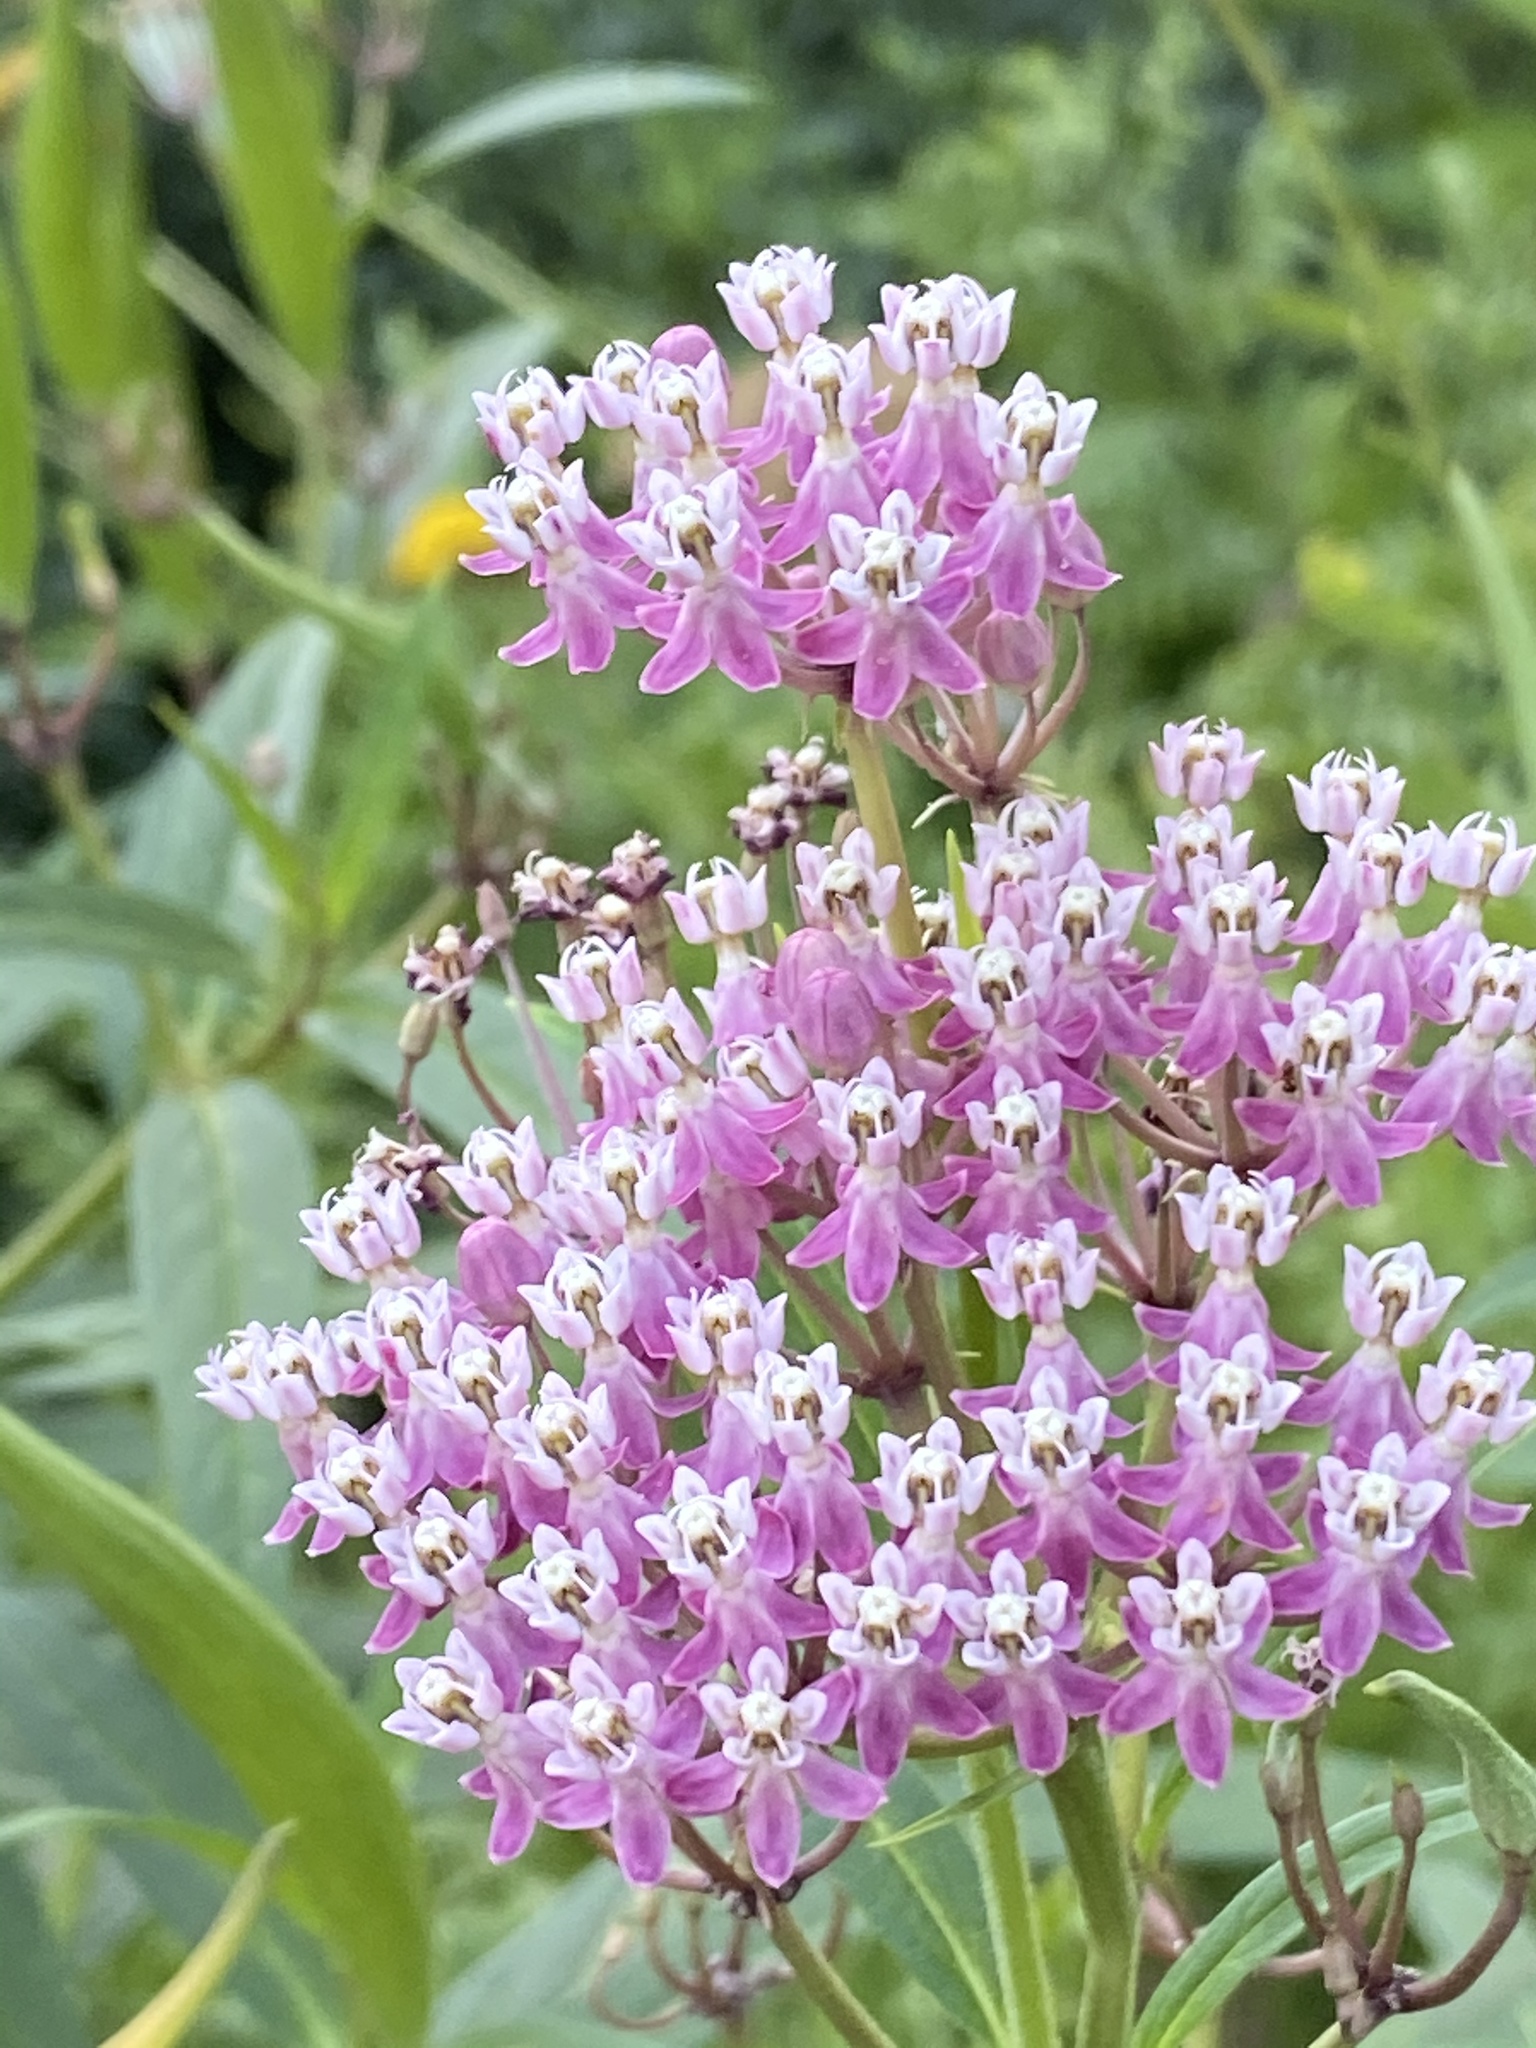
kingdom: Plantae
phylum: Tracheophyta
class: Magnoliopsida
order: Gentianales
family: Apocynaceae
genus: Asclepias
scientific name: Asclepias incarnata
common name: Swamp milkweed
